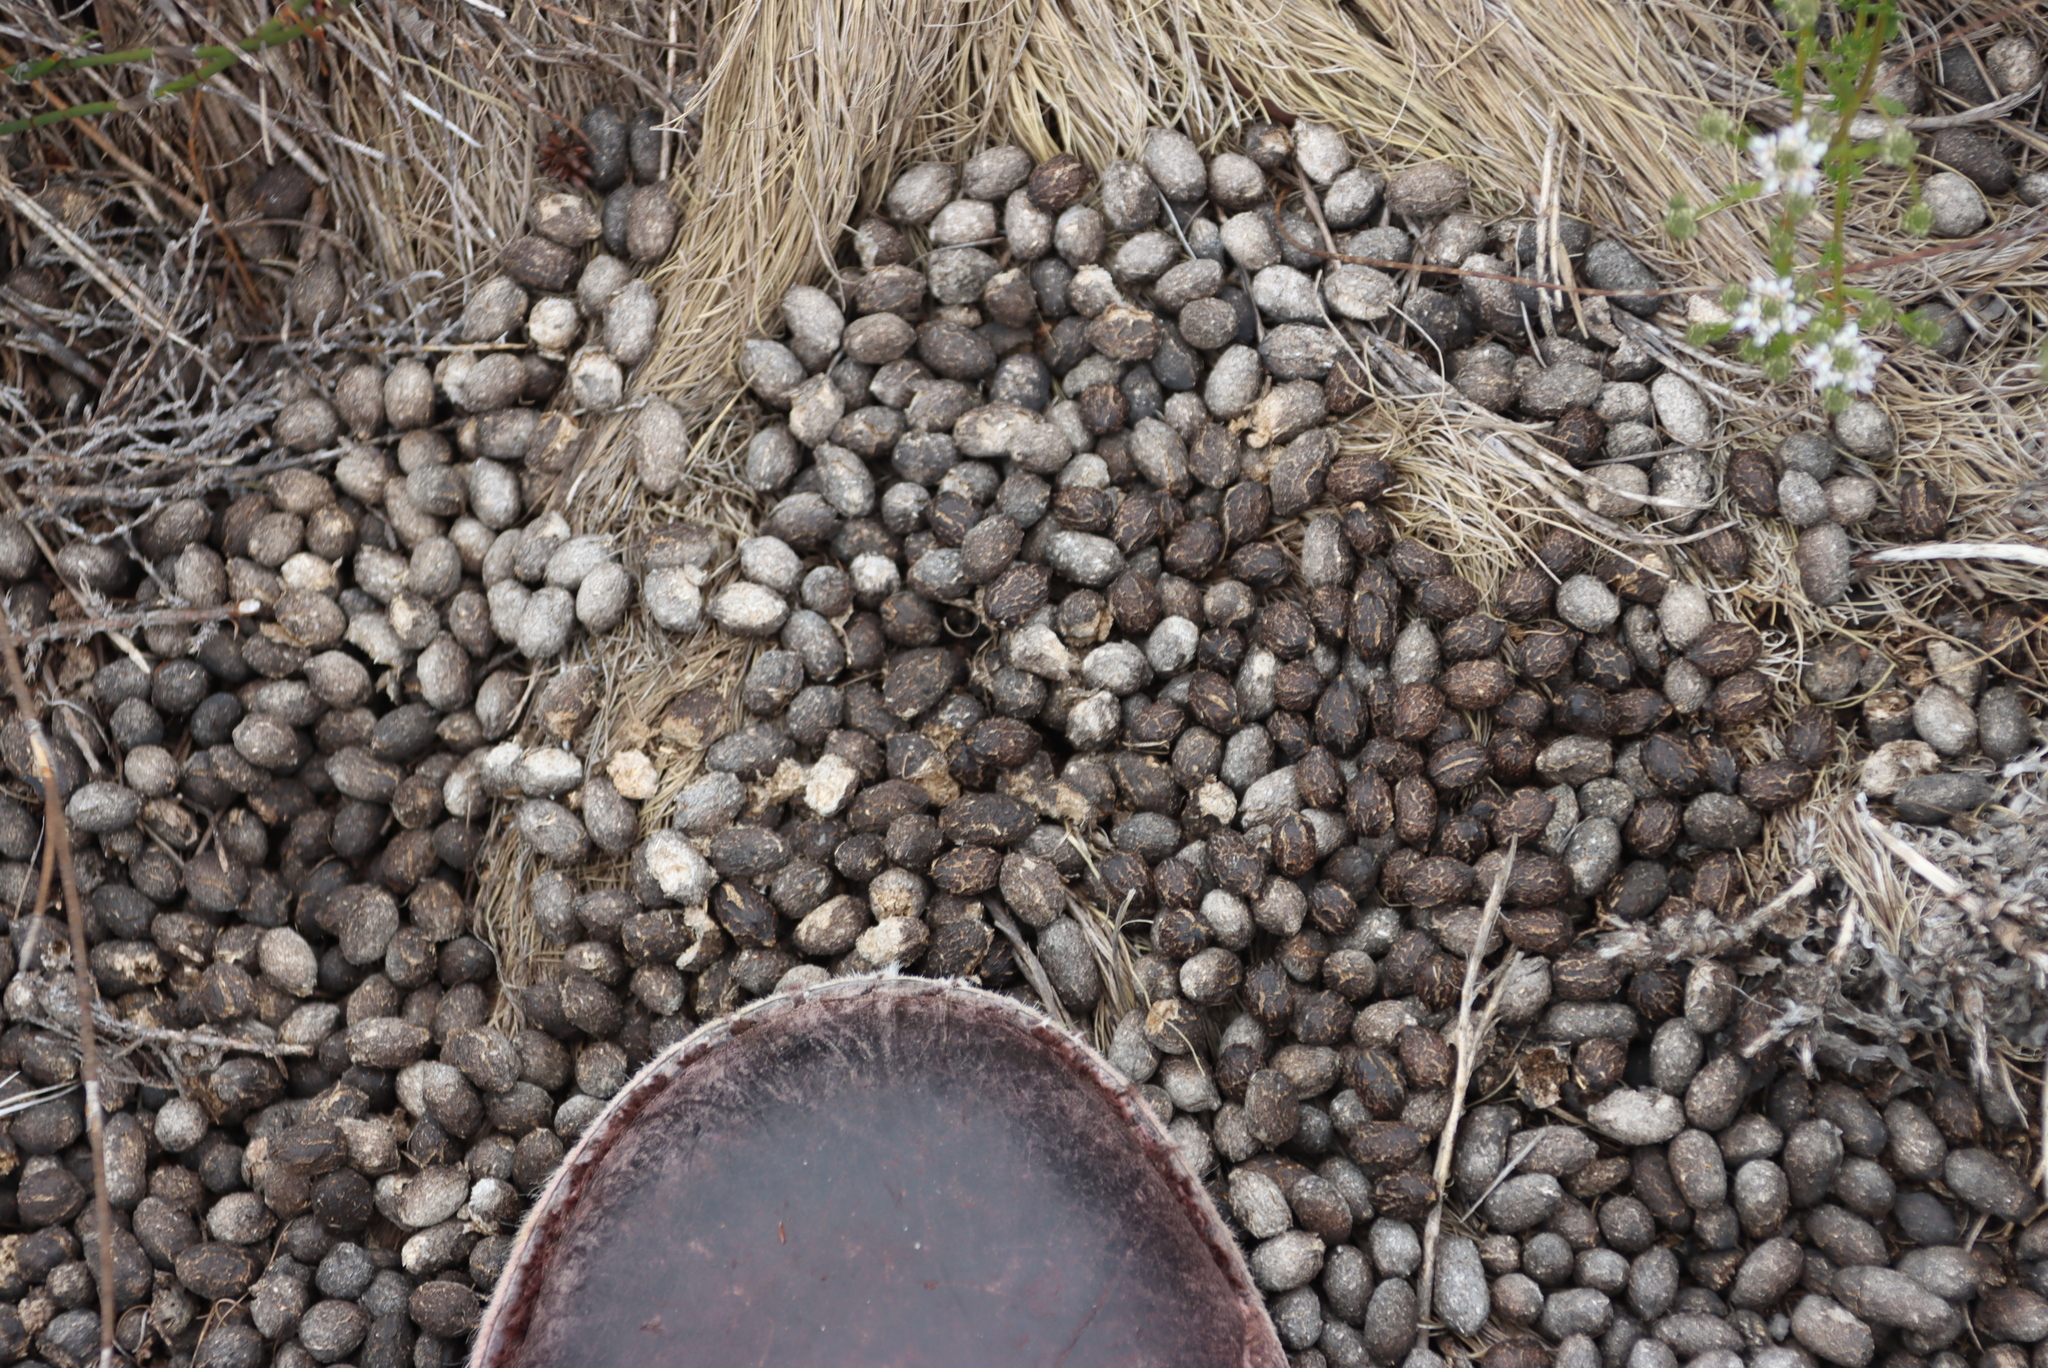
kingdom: Animalia
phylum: Chordata
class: Mammalia
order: Artiodactyla
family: Bovidae
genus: Oreotragus
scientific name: Oreotragus oreotragus
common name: Klipspringer
